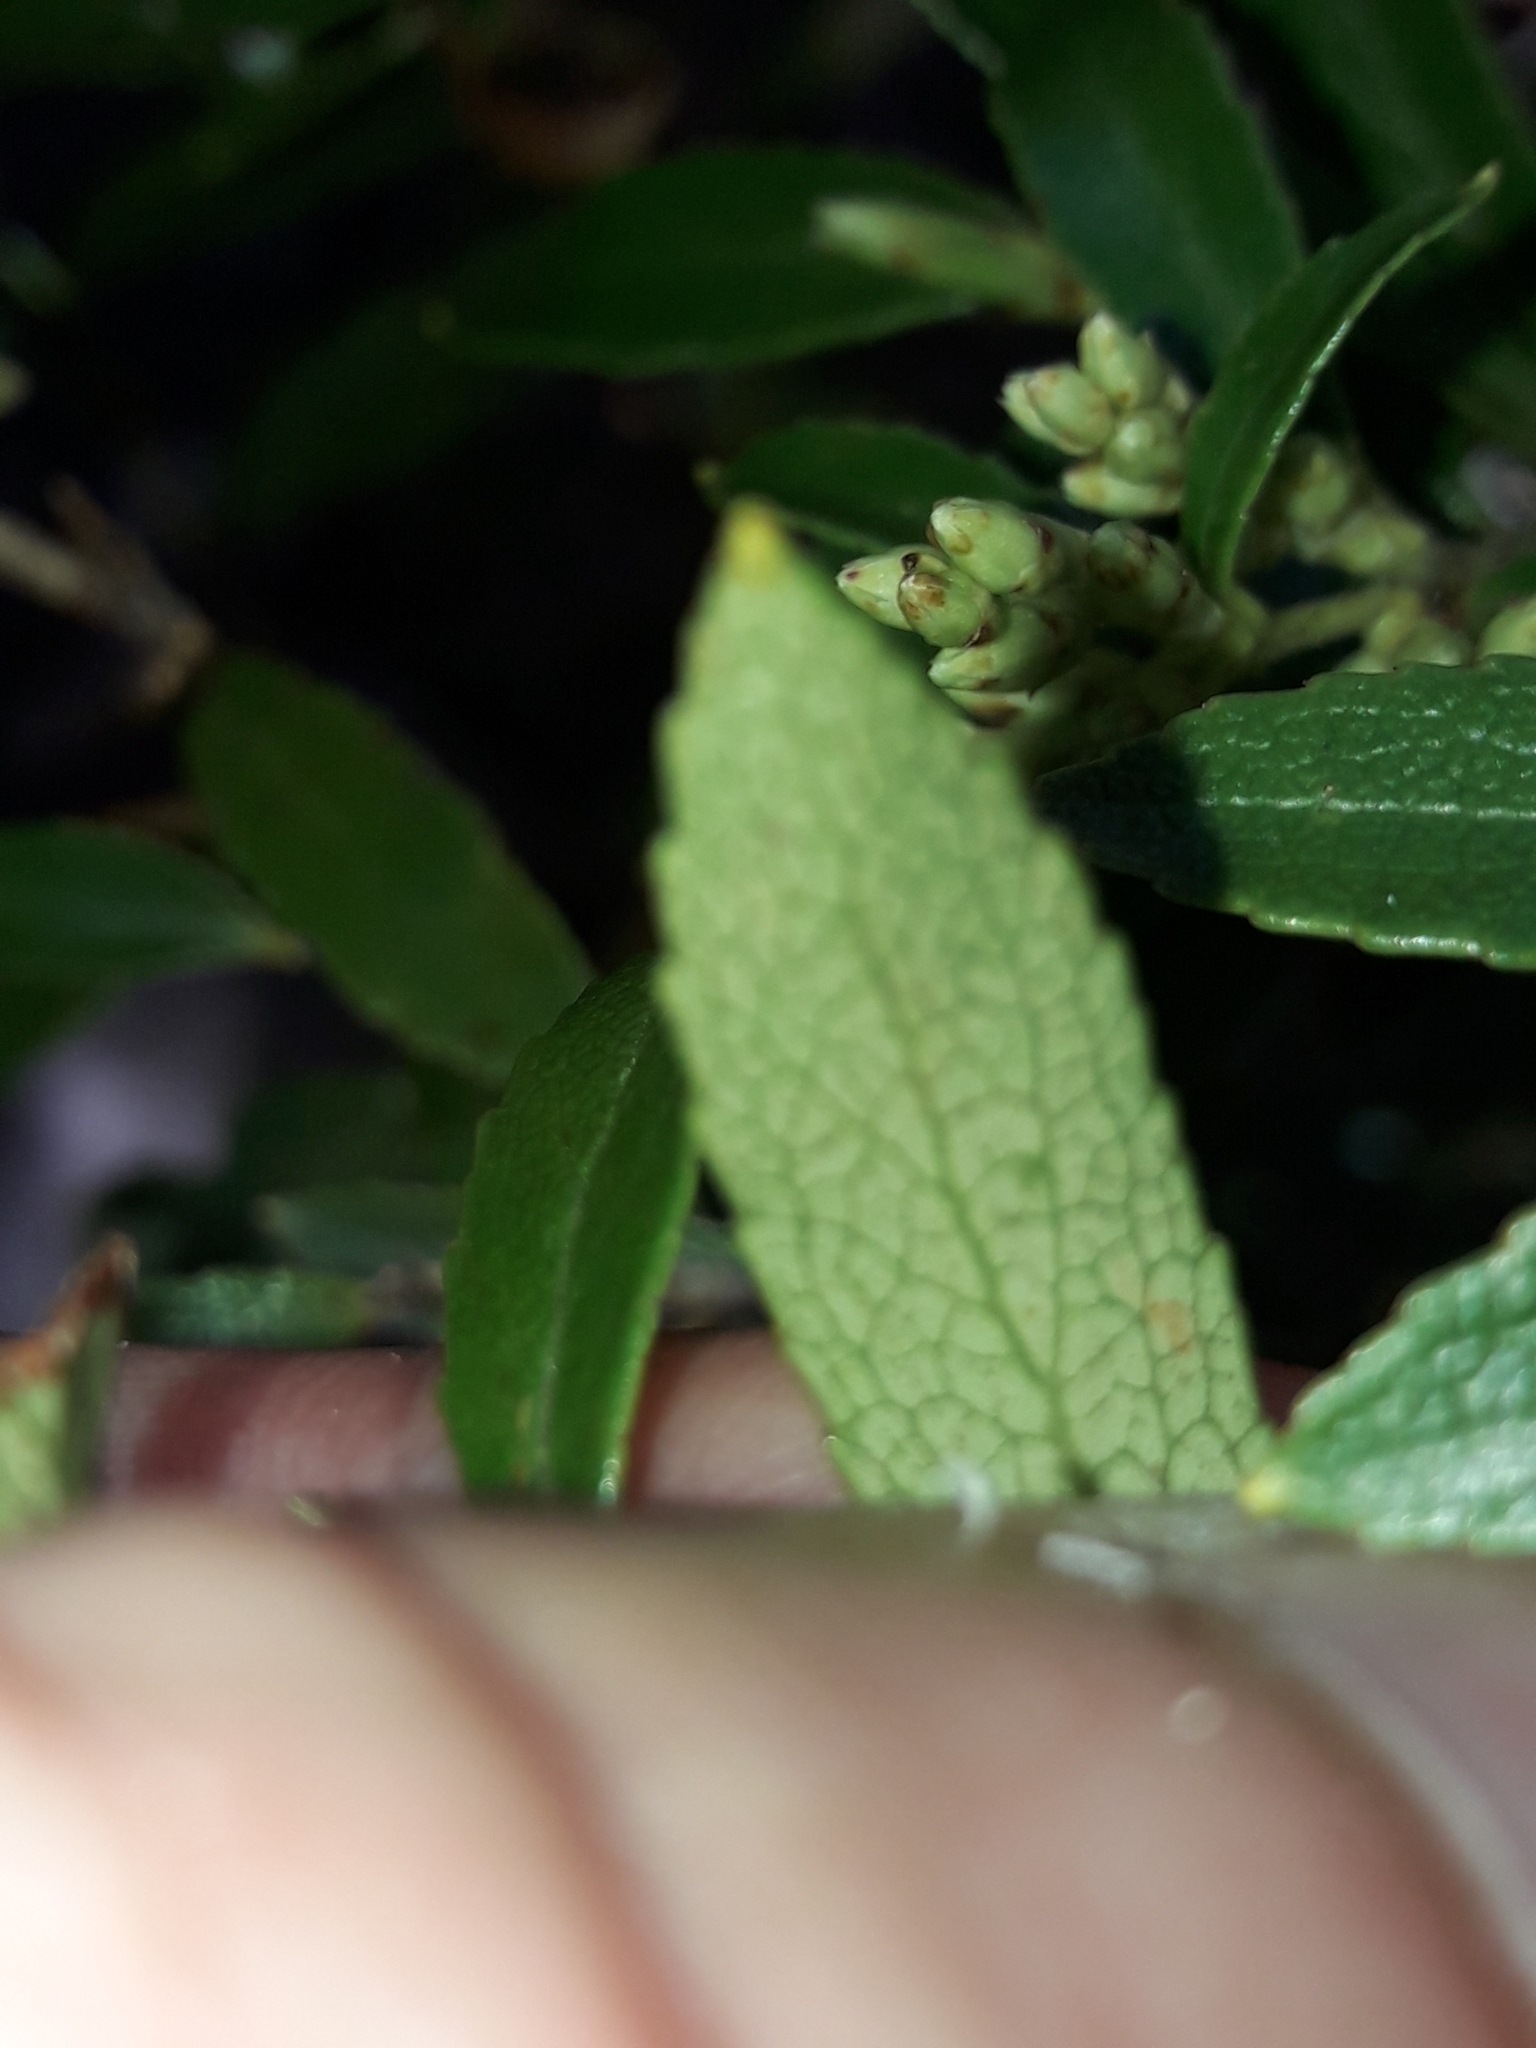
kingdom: Plantae
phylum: Tracheophyta
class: Magnoliopsida
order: Ericales
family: Ericaceae
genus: Gaultheria
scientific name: Gaultheria rupestris
